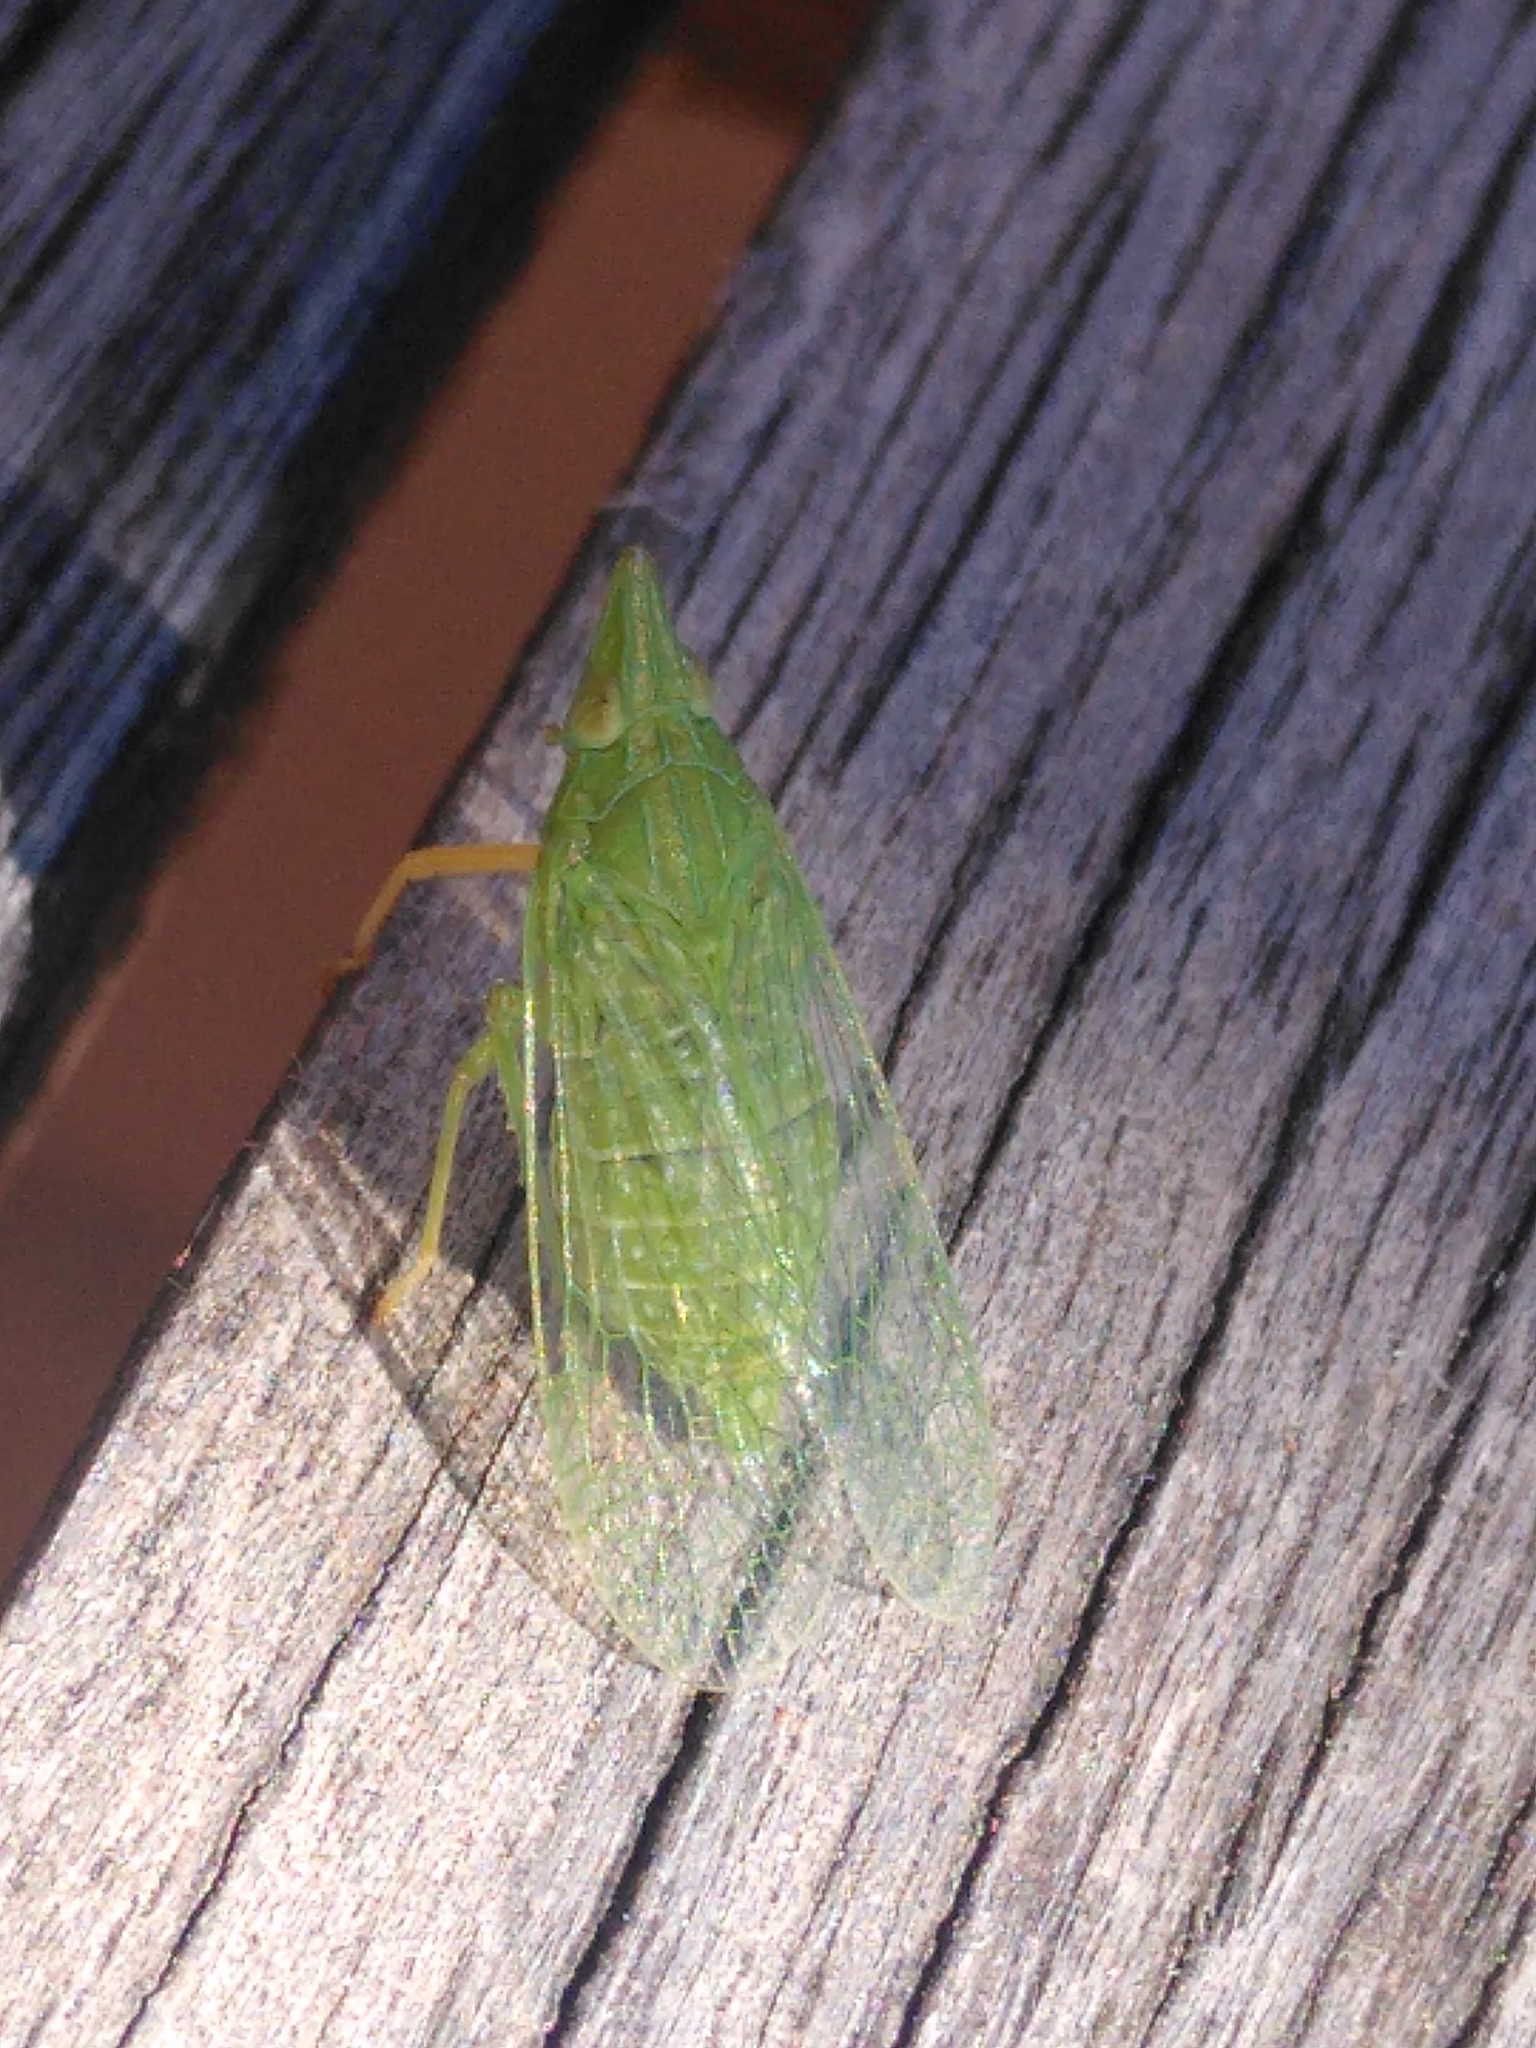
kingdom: Animalia
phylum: Arthropoda
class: Insecta
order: Hemiptera
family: Dictyopharidae
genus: Dictyophara
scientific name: Dictyophara multireticulata
